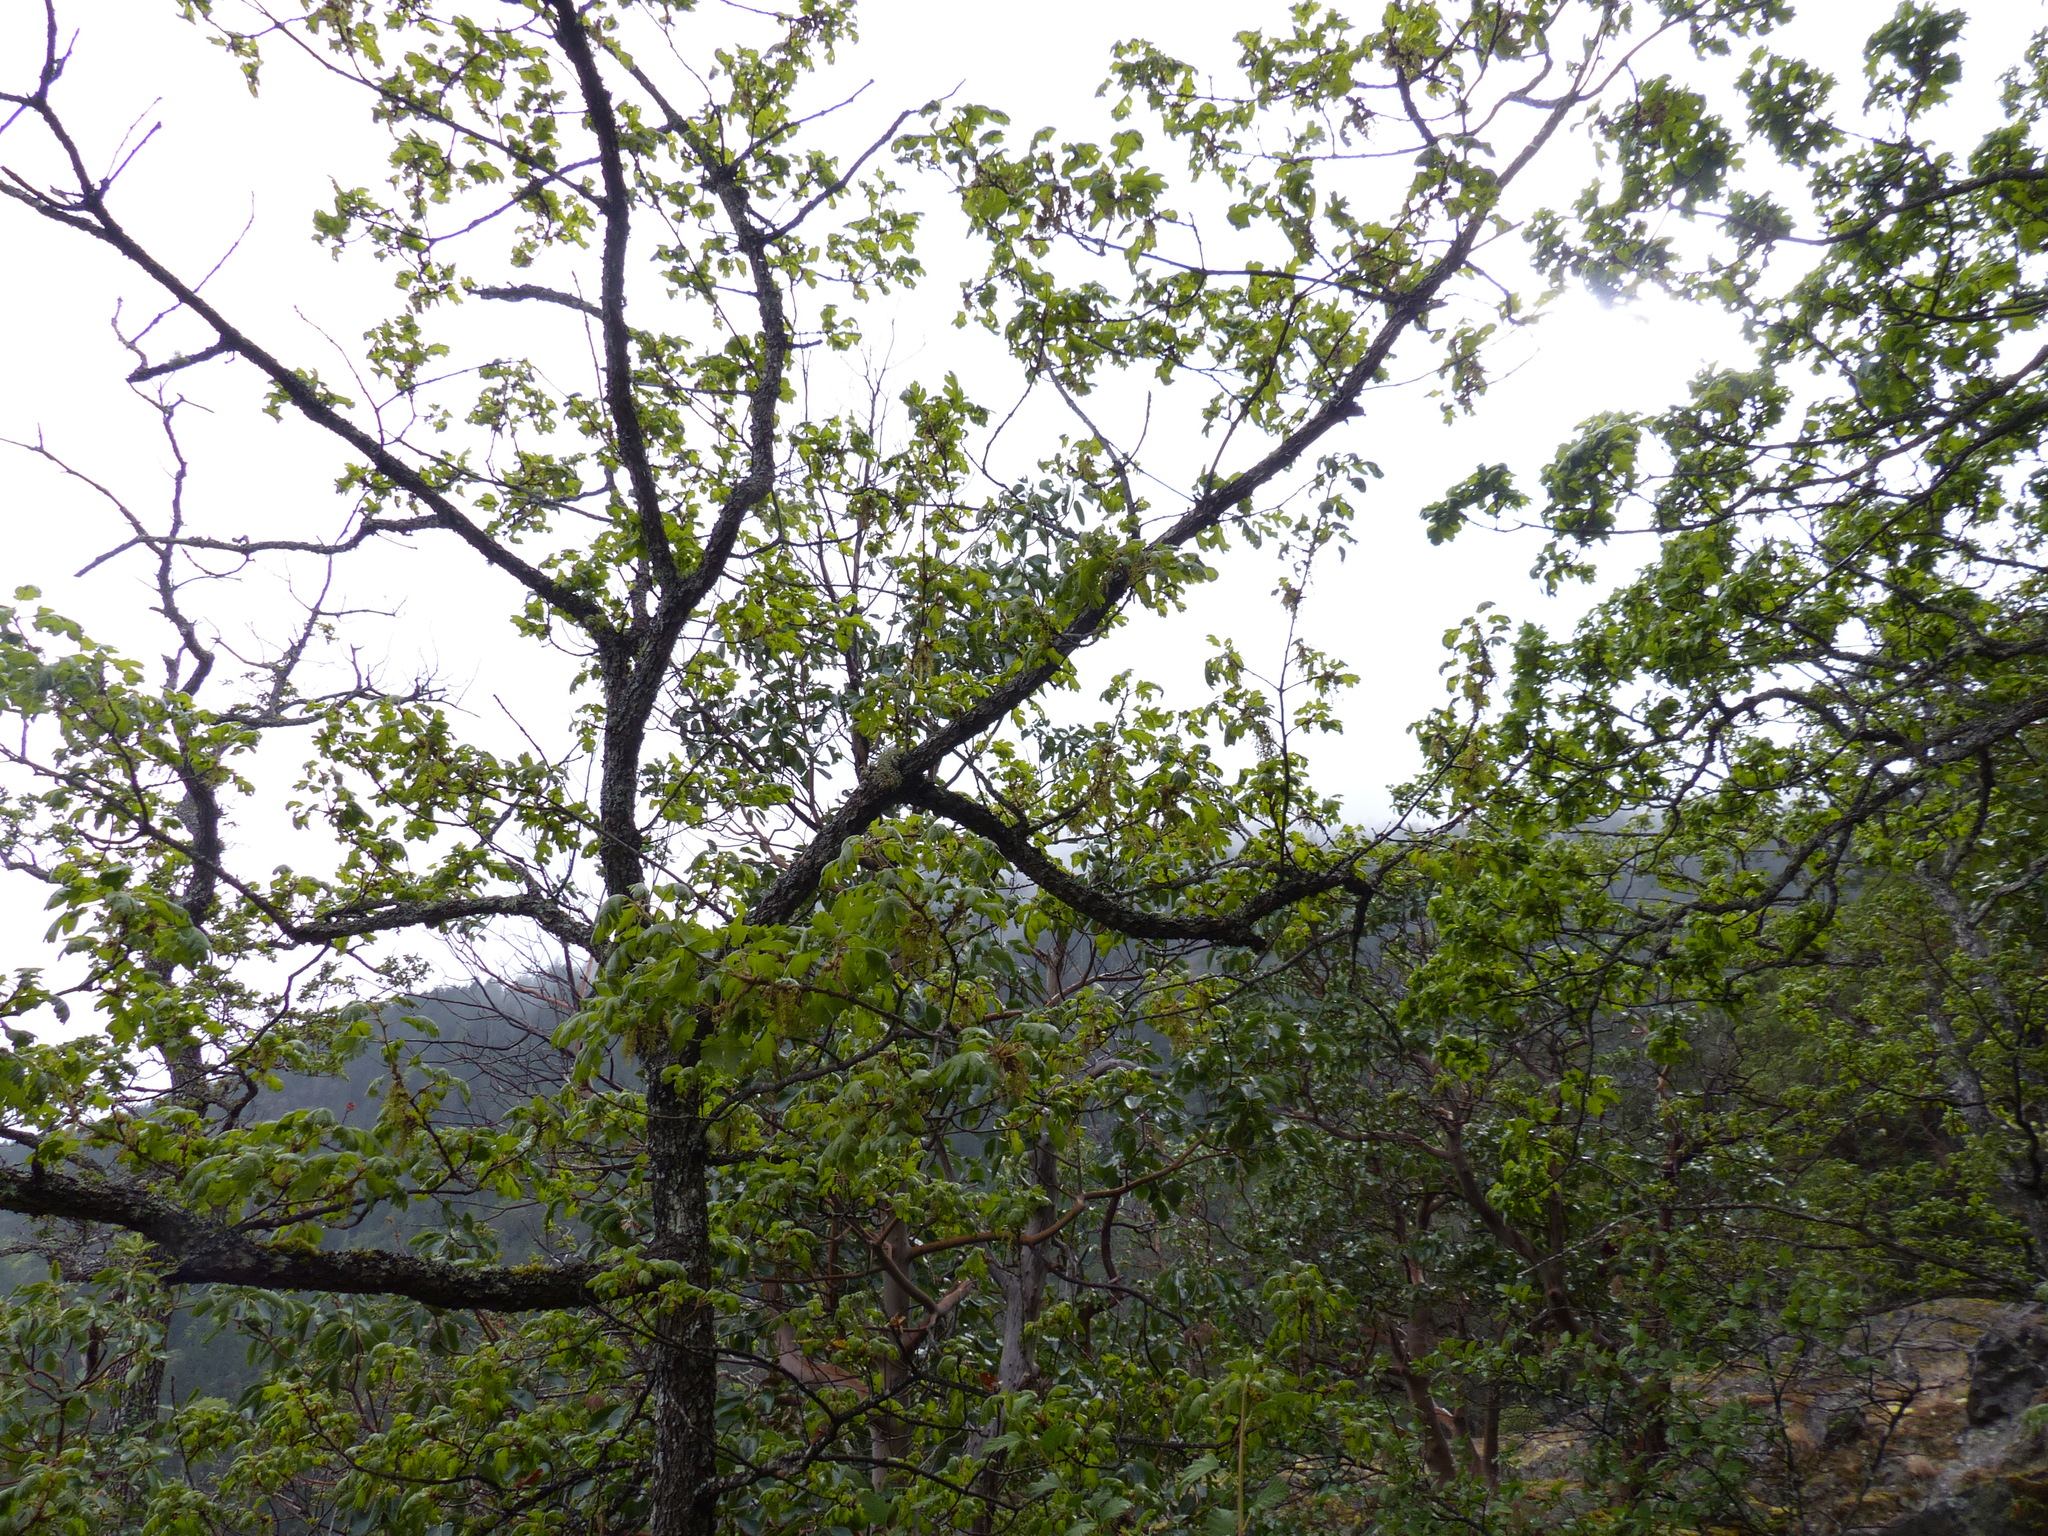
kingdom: Plantae
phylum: Tracheophyta
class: Magnoliopsida
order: Fagales
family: Fagaceae
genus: Quercus
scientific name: Quercus garryana
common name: Garry oak
